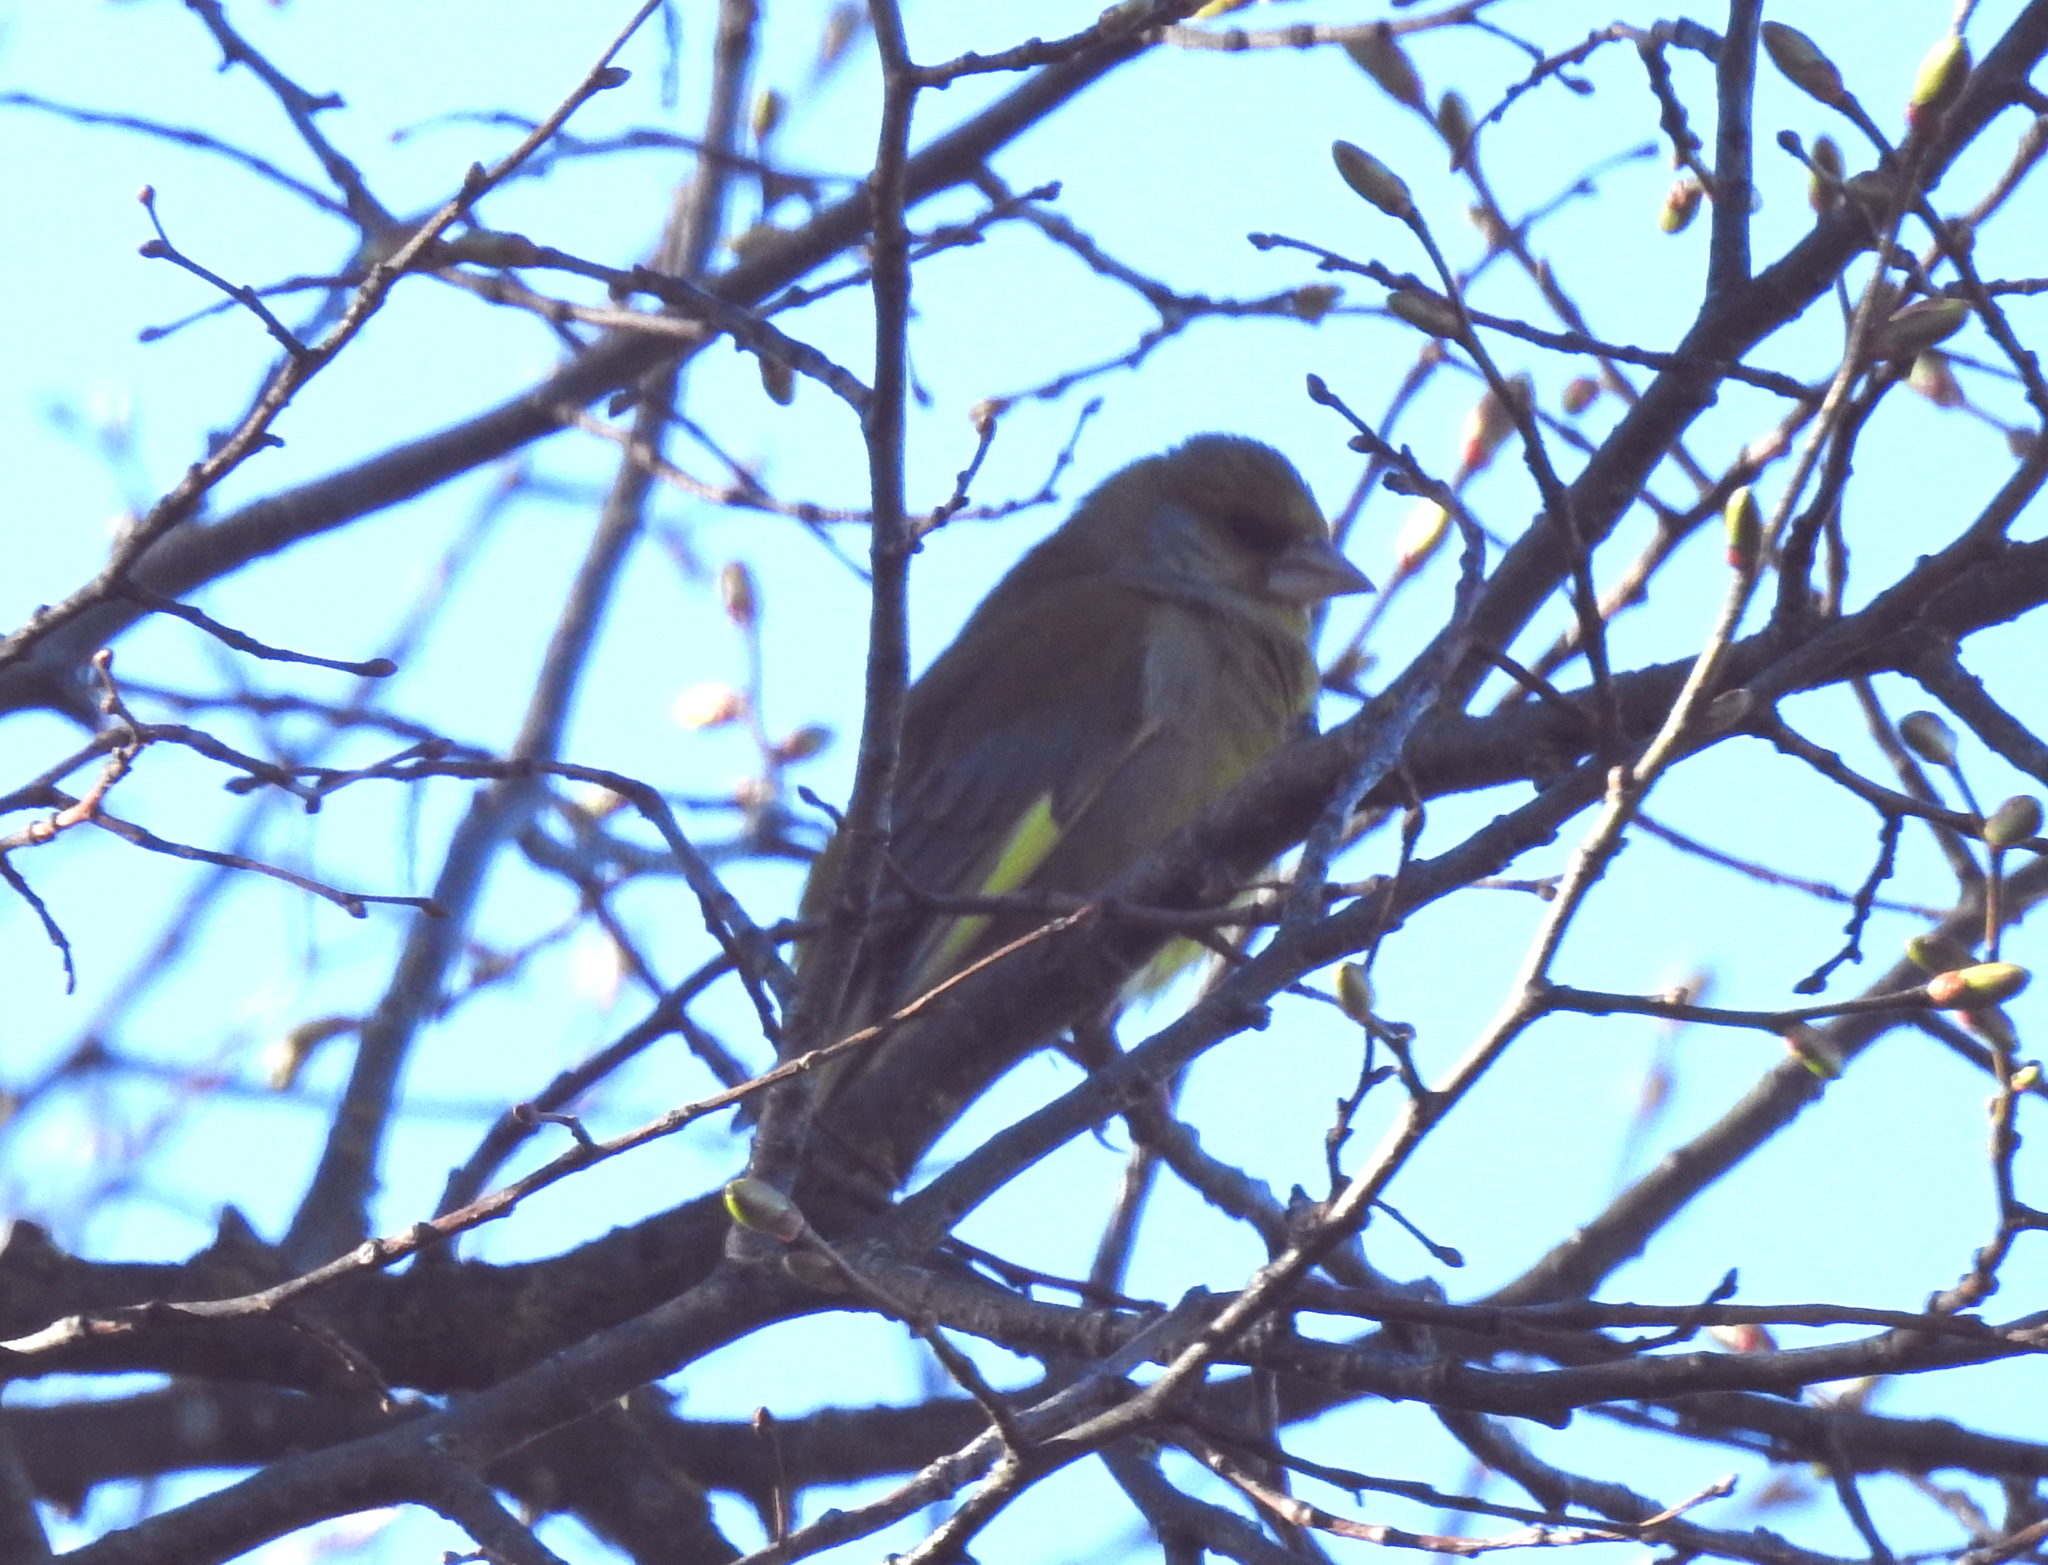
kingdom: Plantae
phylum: Tracheophyta
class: Liliopsida
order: Poales
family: Poaceae
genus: Chloris
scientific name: Chloris chloris
